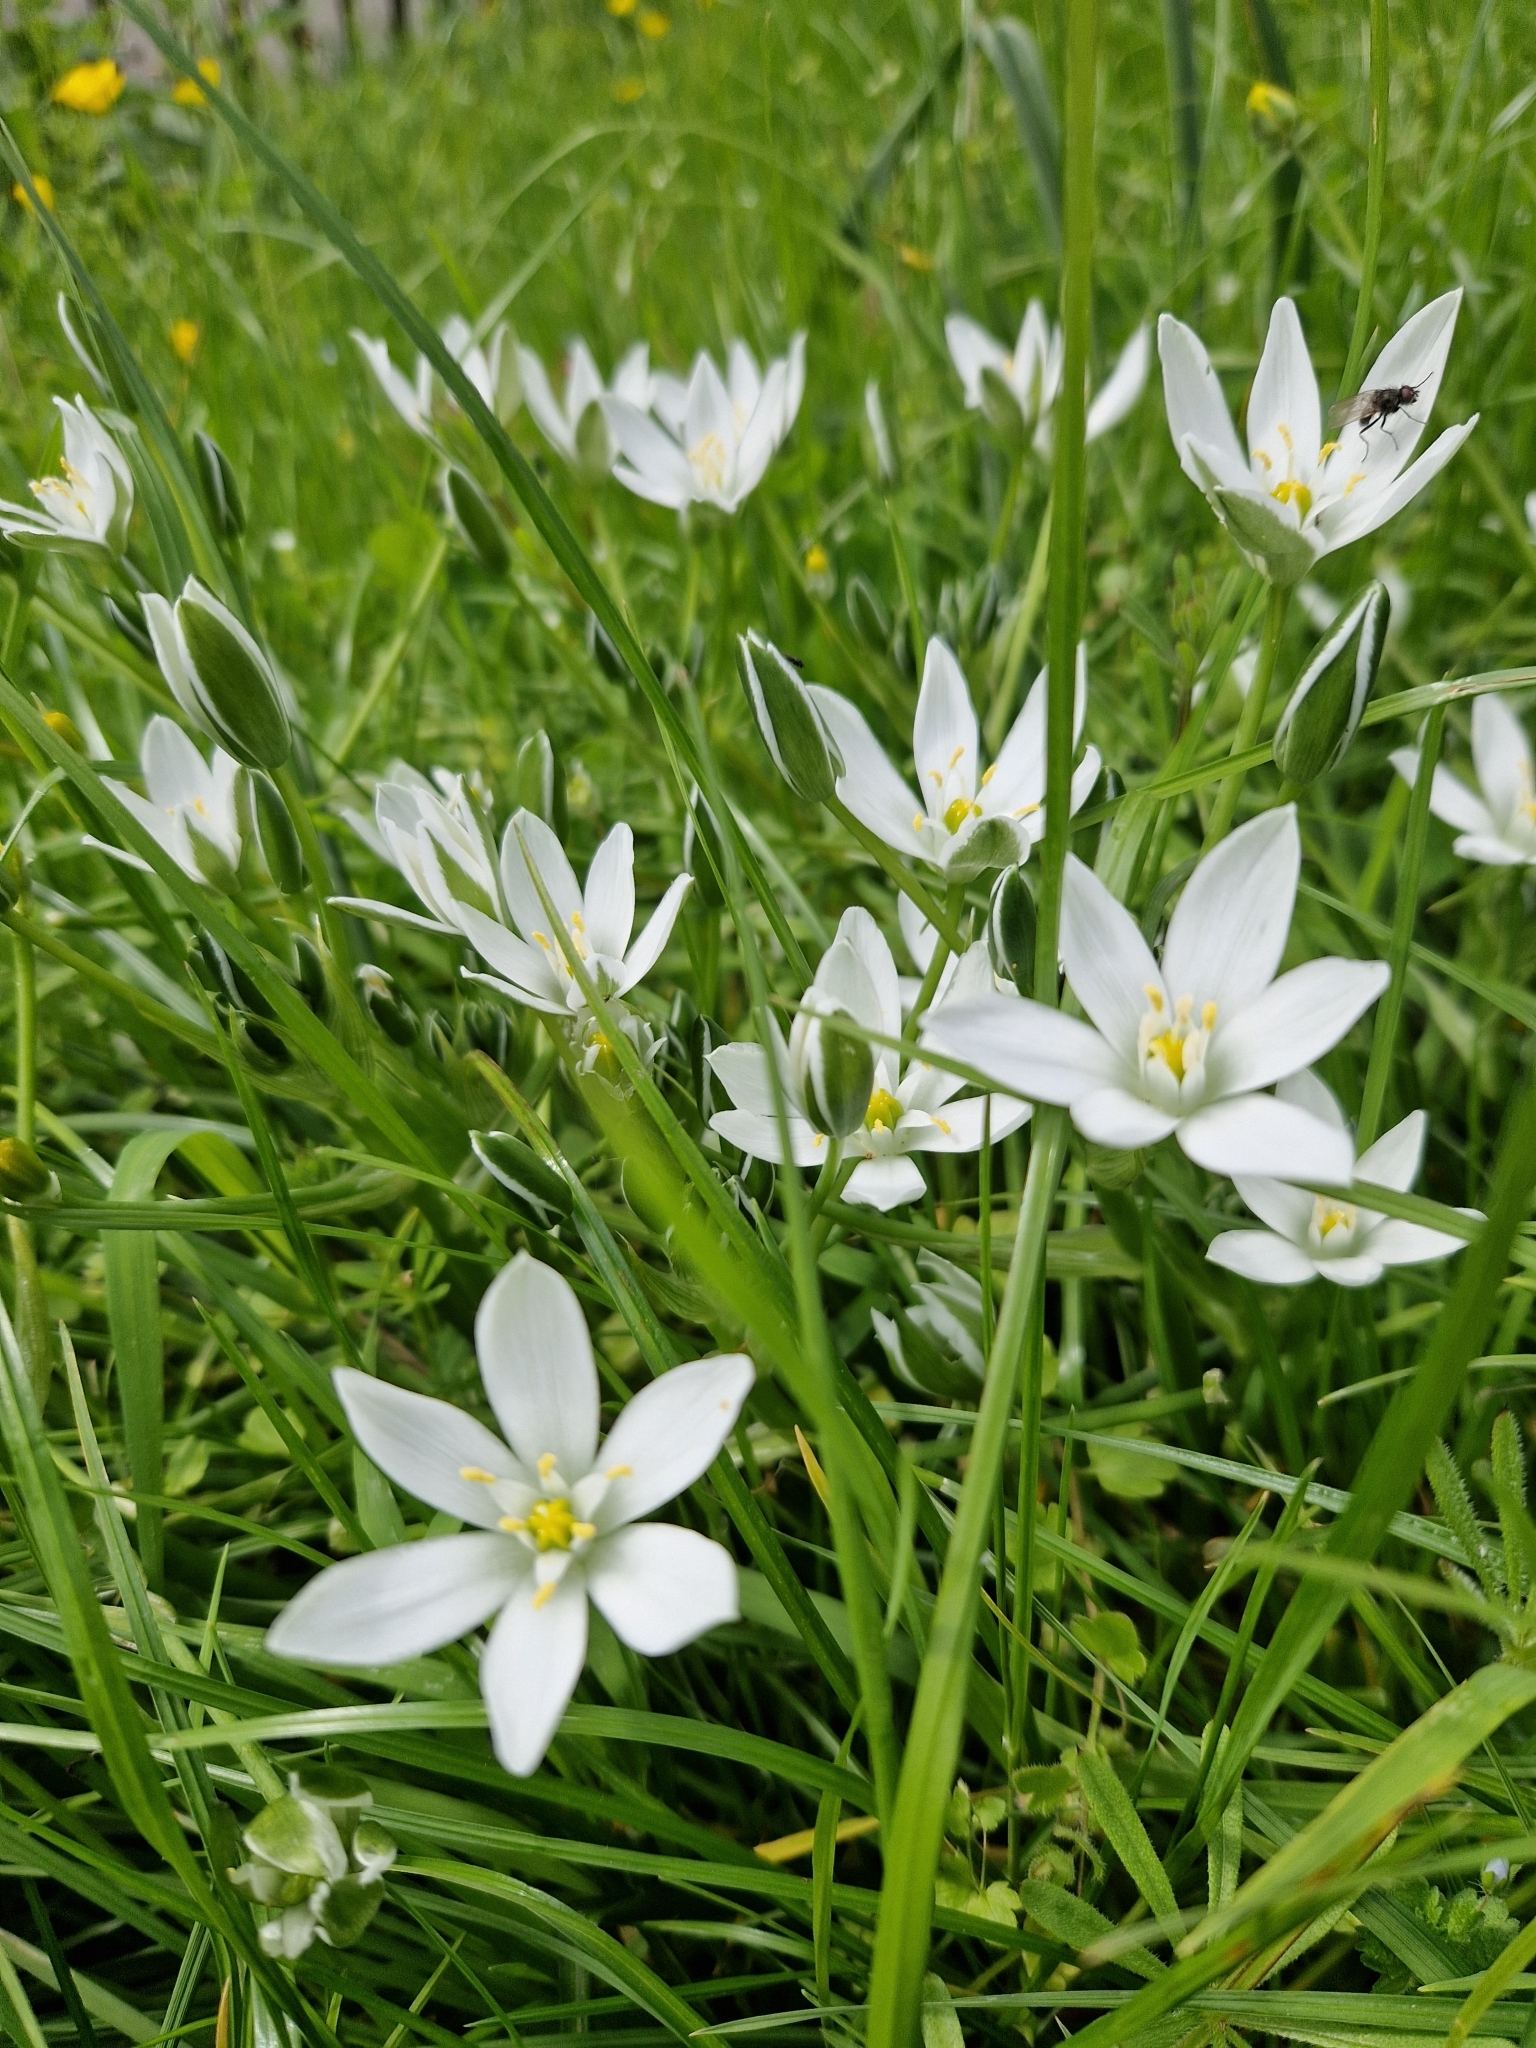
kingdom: Plantae
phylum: Tracheophyta
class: Liliopsida
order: Asparagales
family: Asparagaceae
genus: Ornithogalum
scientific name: Ornithogalum umbellatum
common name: Garden star-of-bethlehem
